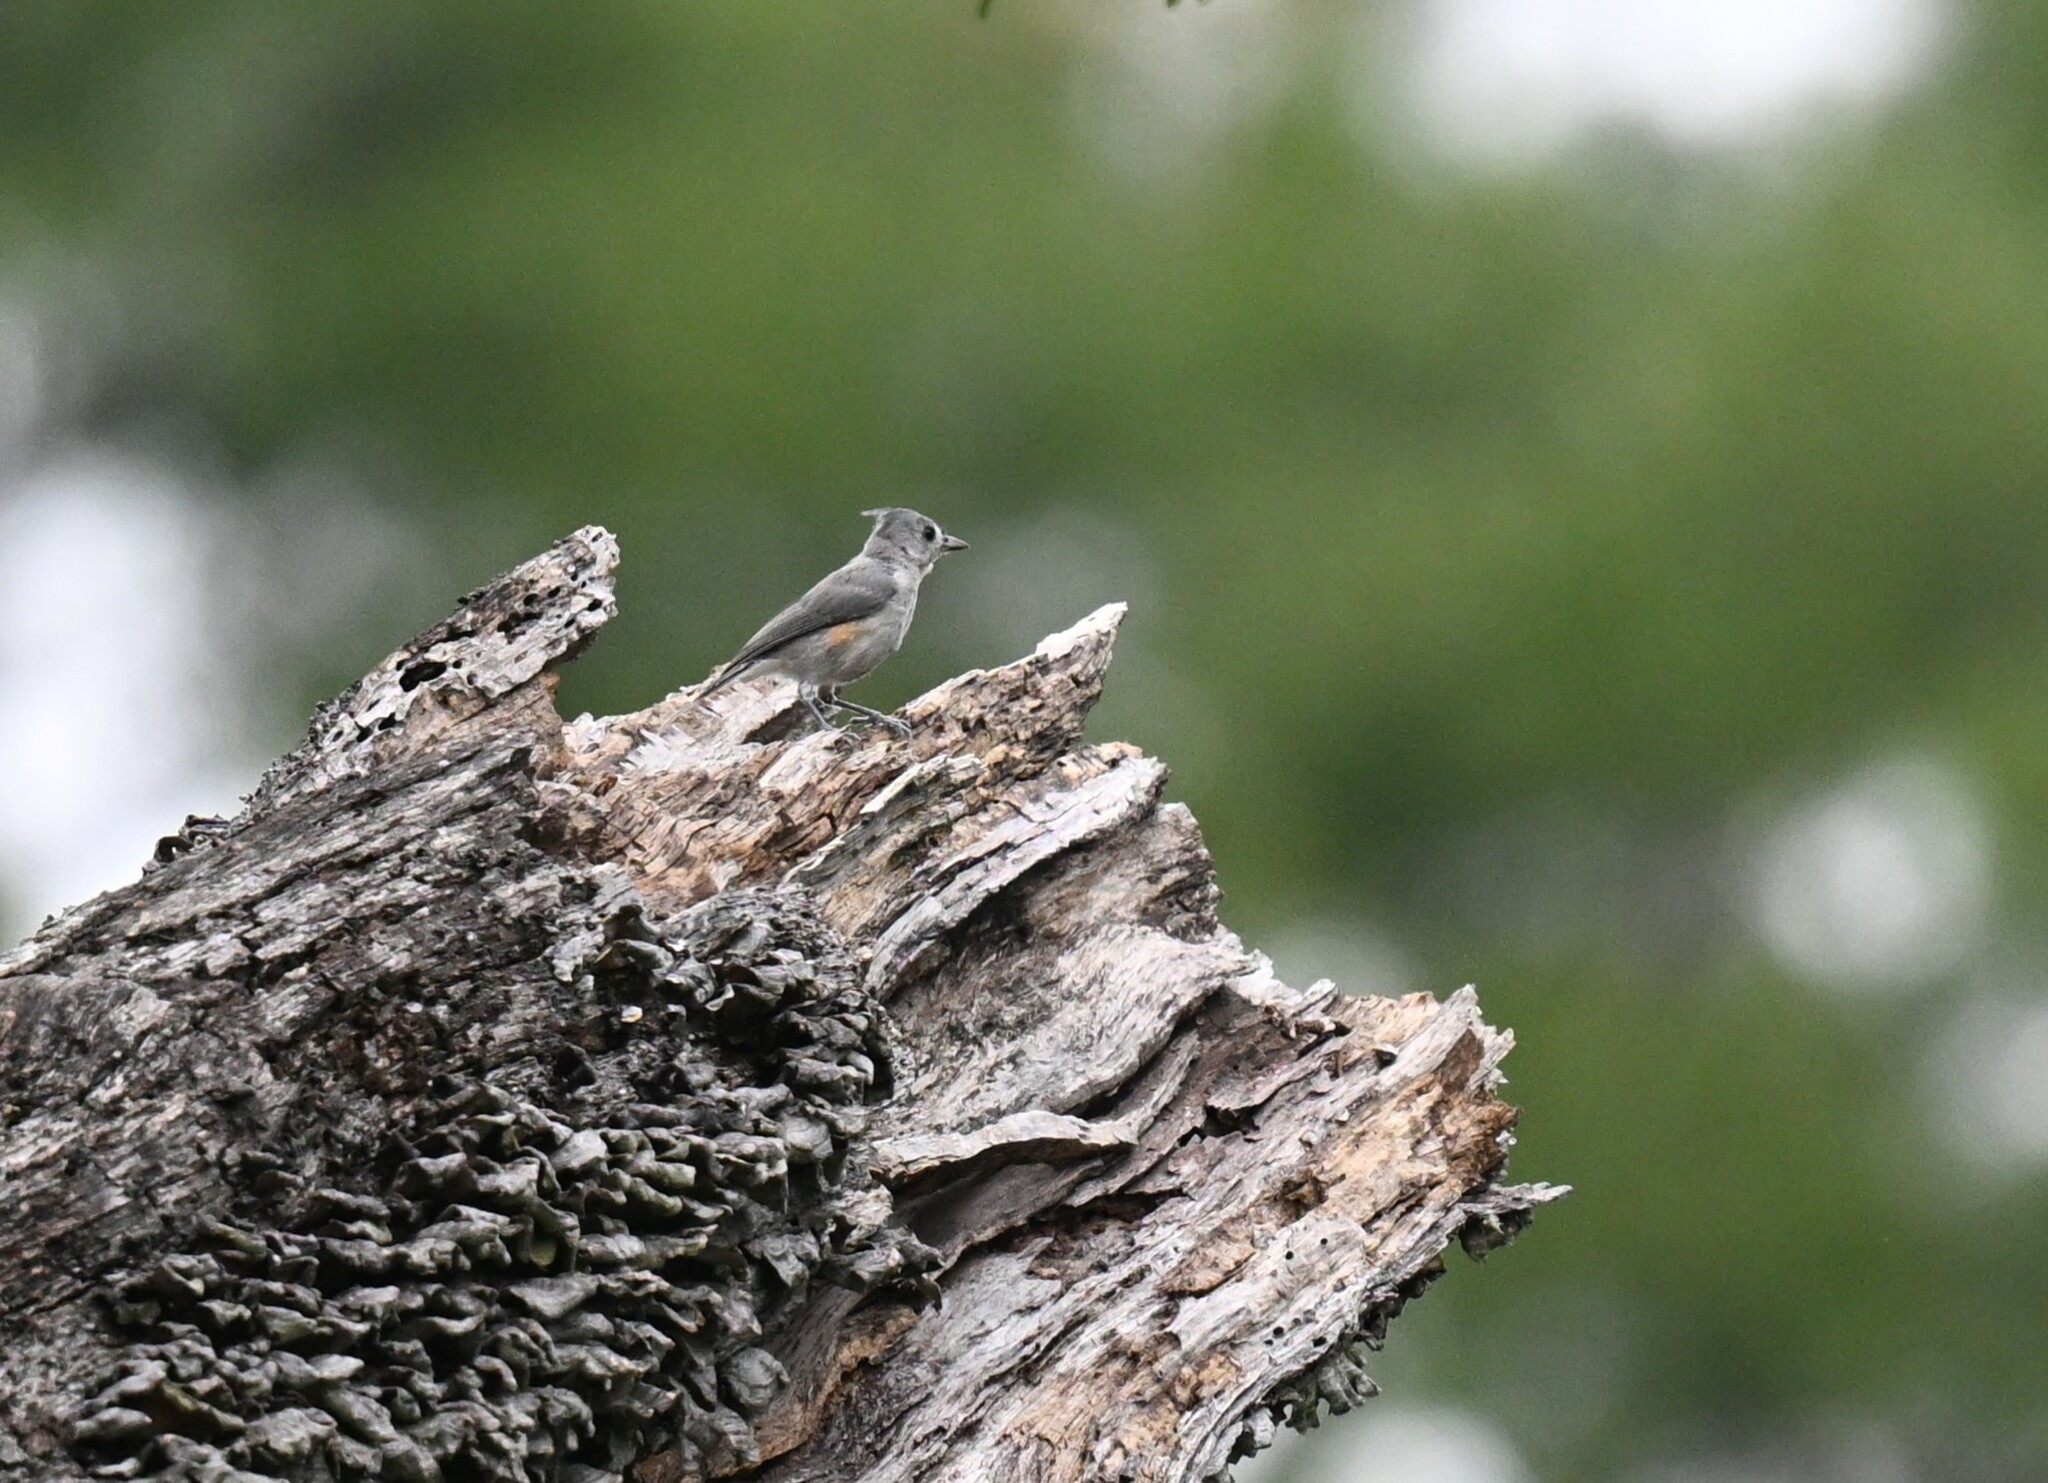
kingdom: Animalia
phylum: Chordata
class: Aves
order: Passeriformes
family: Paridae
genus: Baeolophus
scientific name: Baeolophus bicolor
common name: Tufted titmouse
